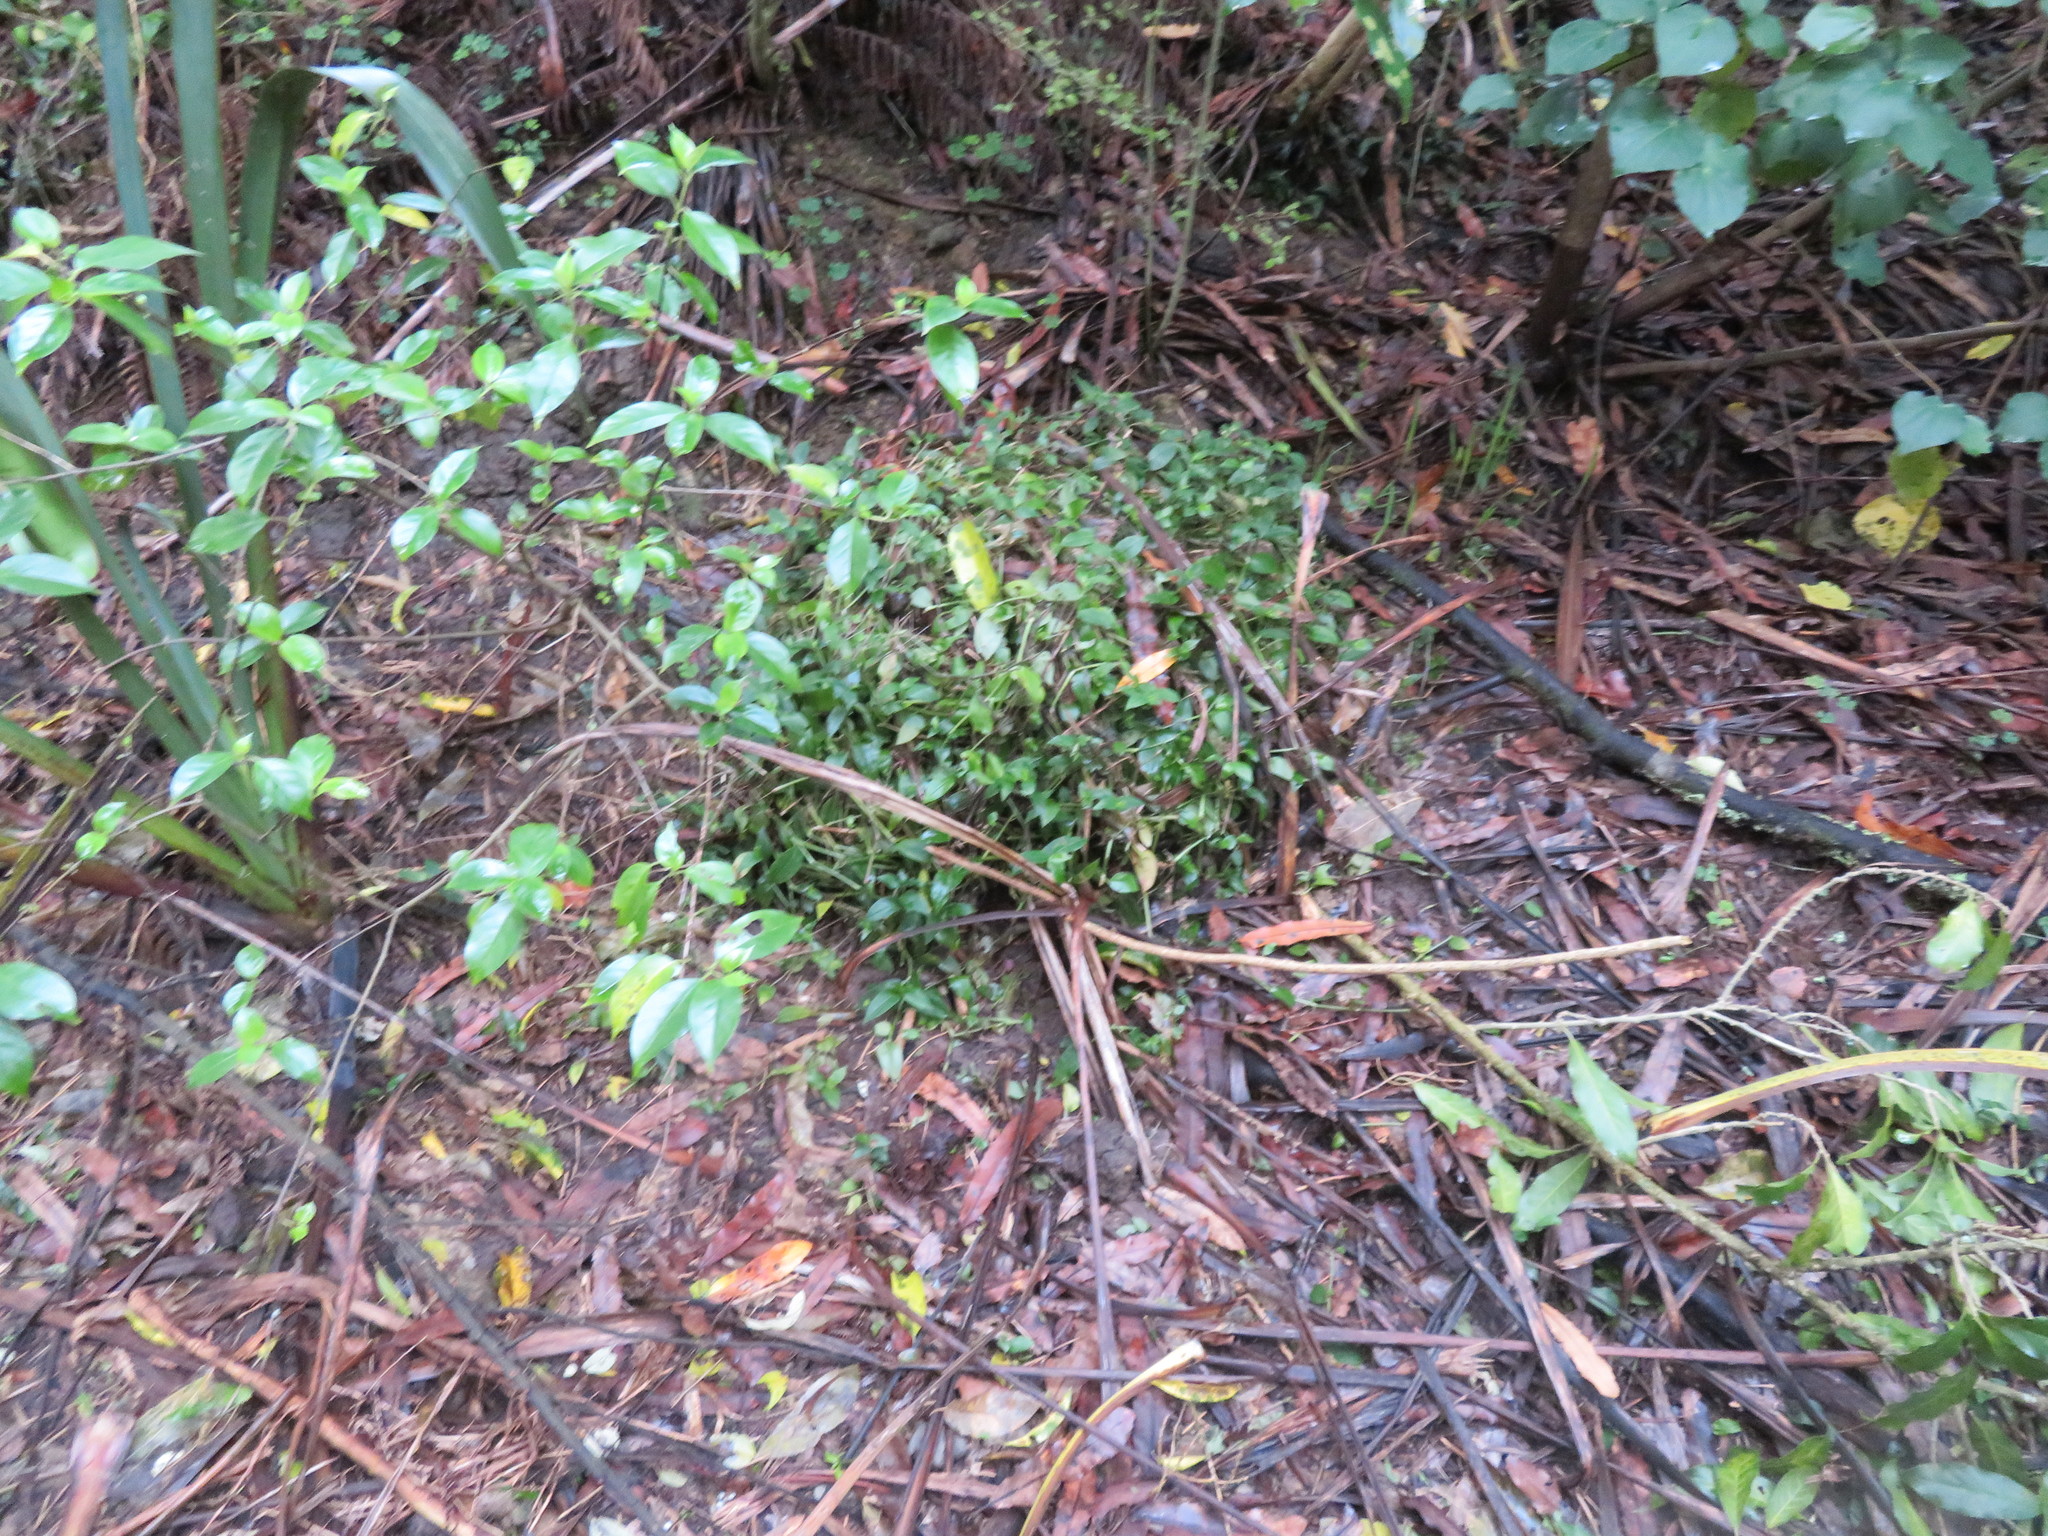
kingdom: Plantae
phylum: Tracheophyta
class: Liliopsida
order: Commelinales
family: Commelinaceae
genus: Tradescantia
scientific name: Tradescantia fluminensis
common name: Wandering-jew
